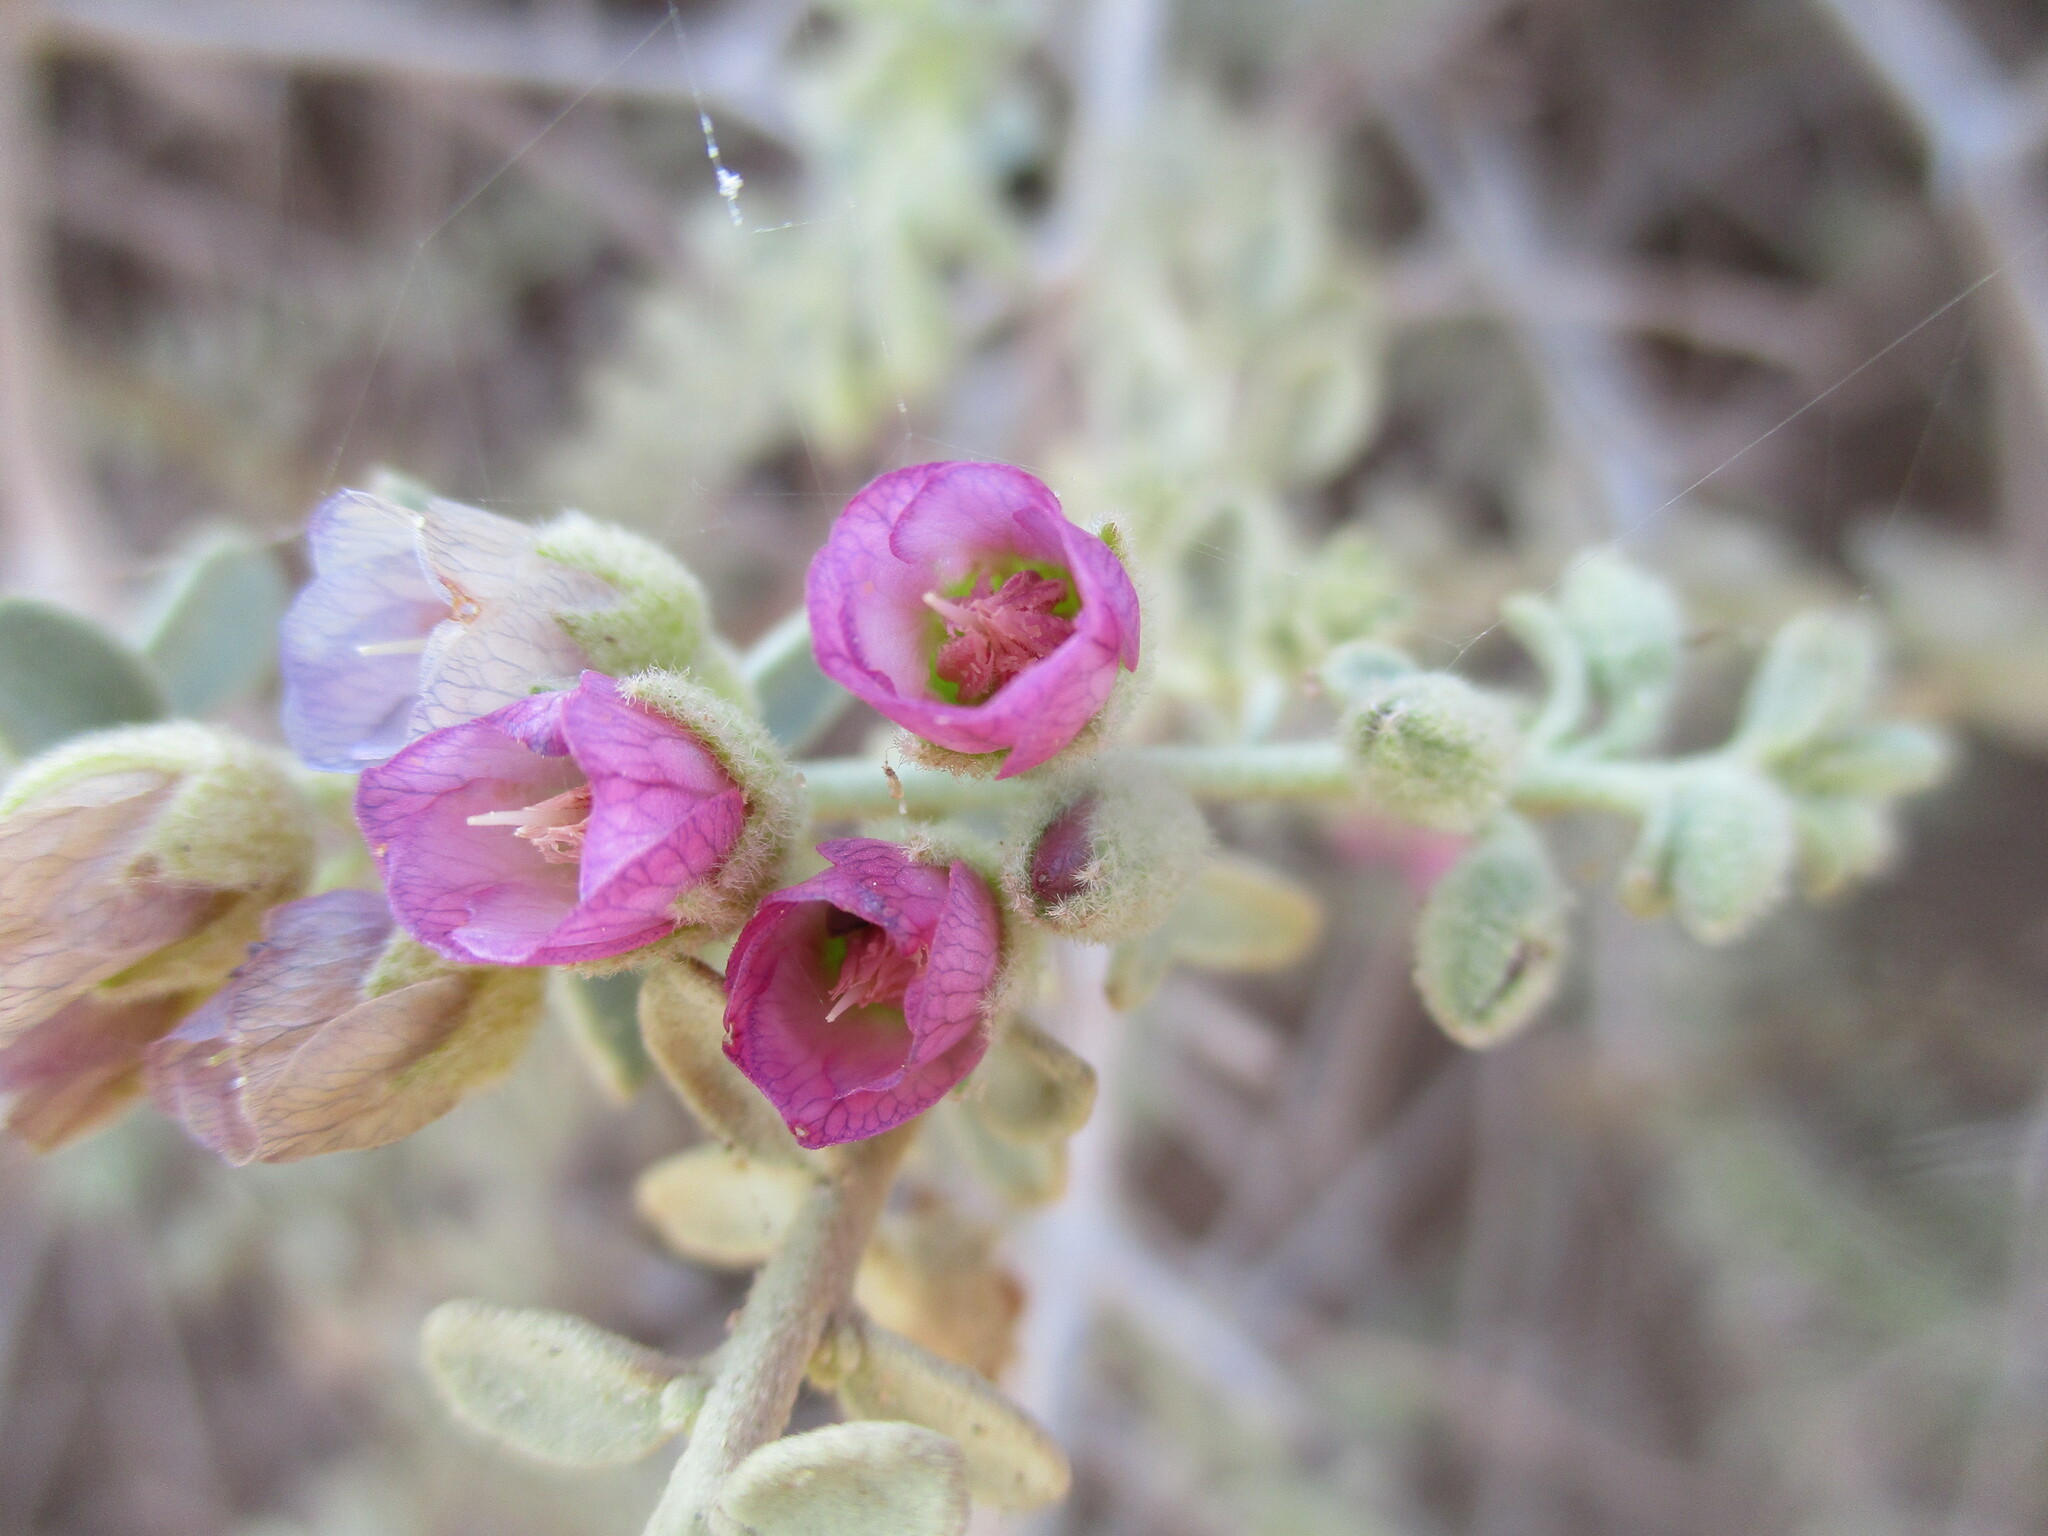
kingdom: Plantae
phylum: Tracheophyta
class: Magnoliopsida
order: Malvales
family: Malvaceae
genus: Hermannia
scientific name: Hermannia glandulossisima
